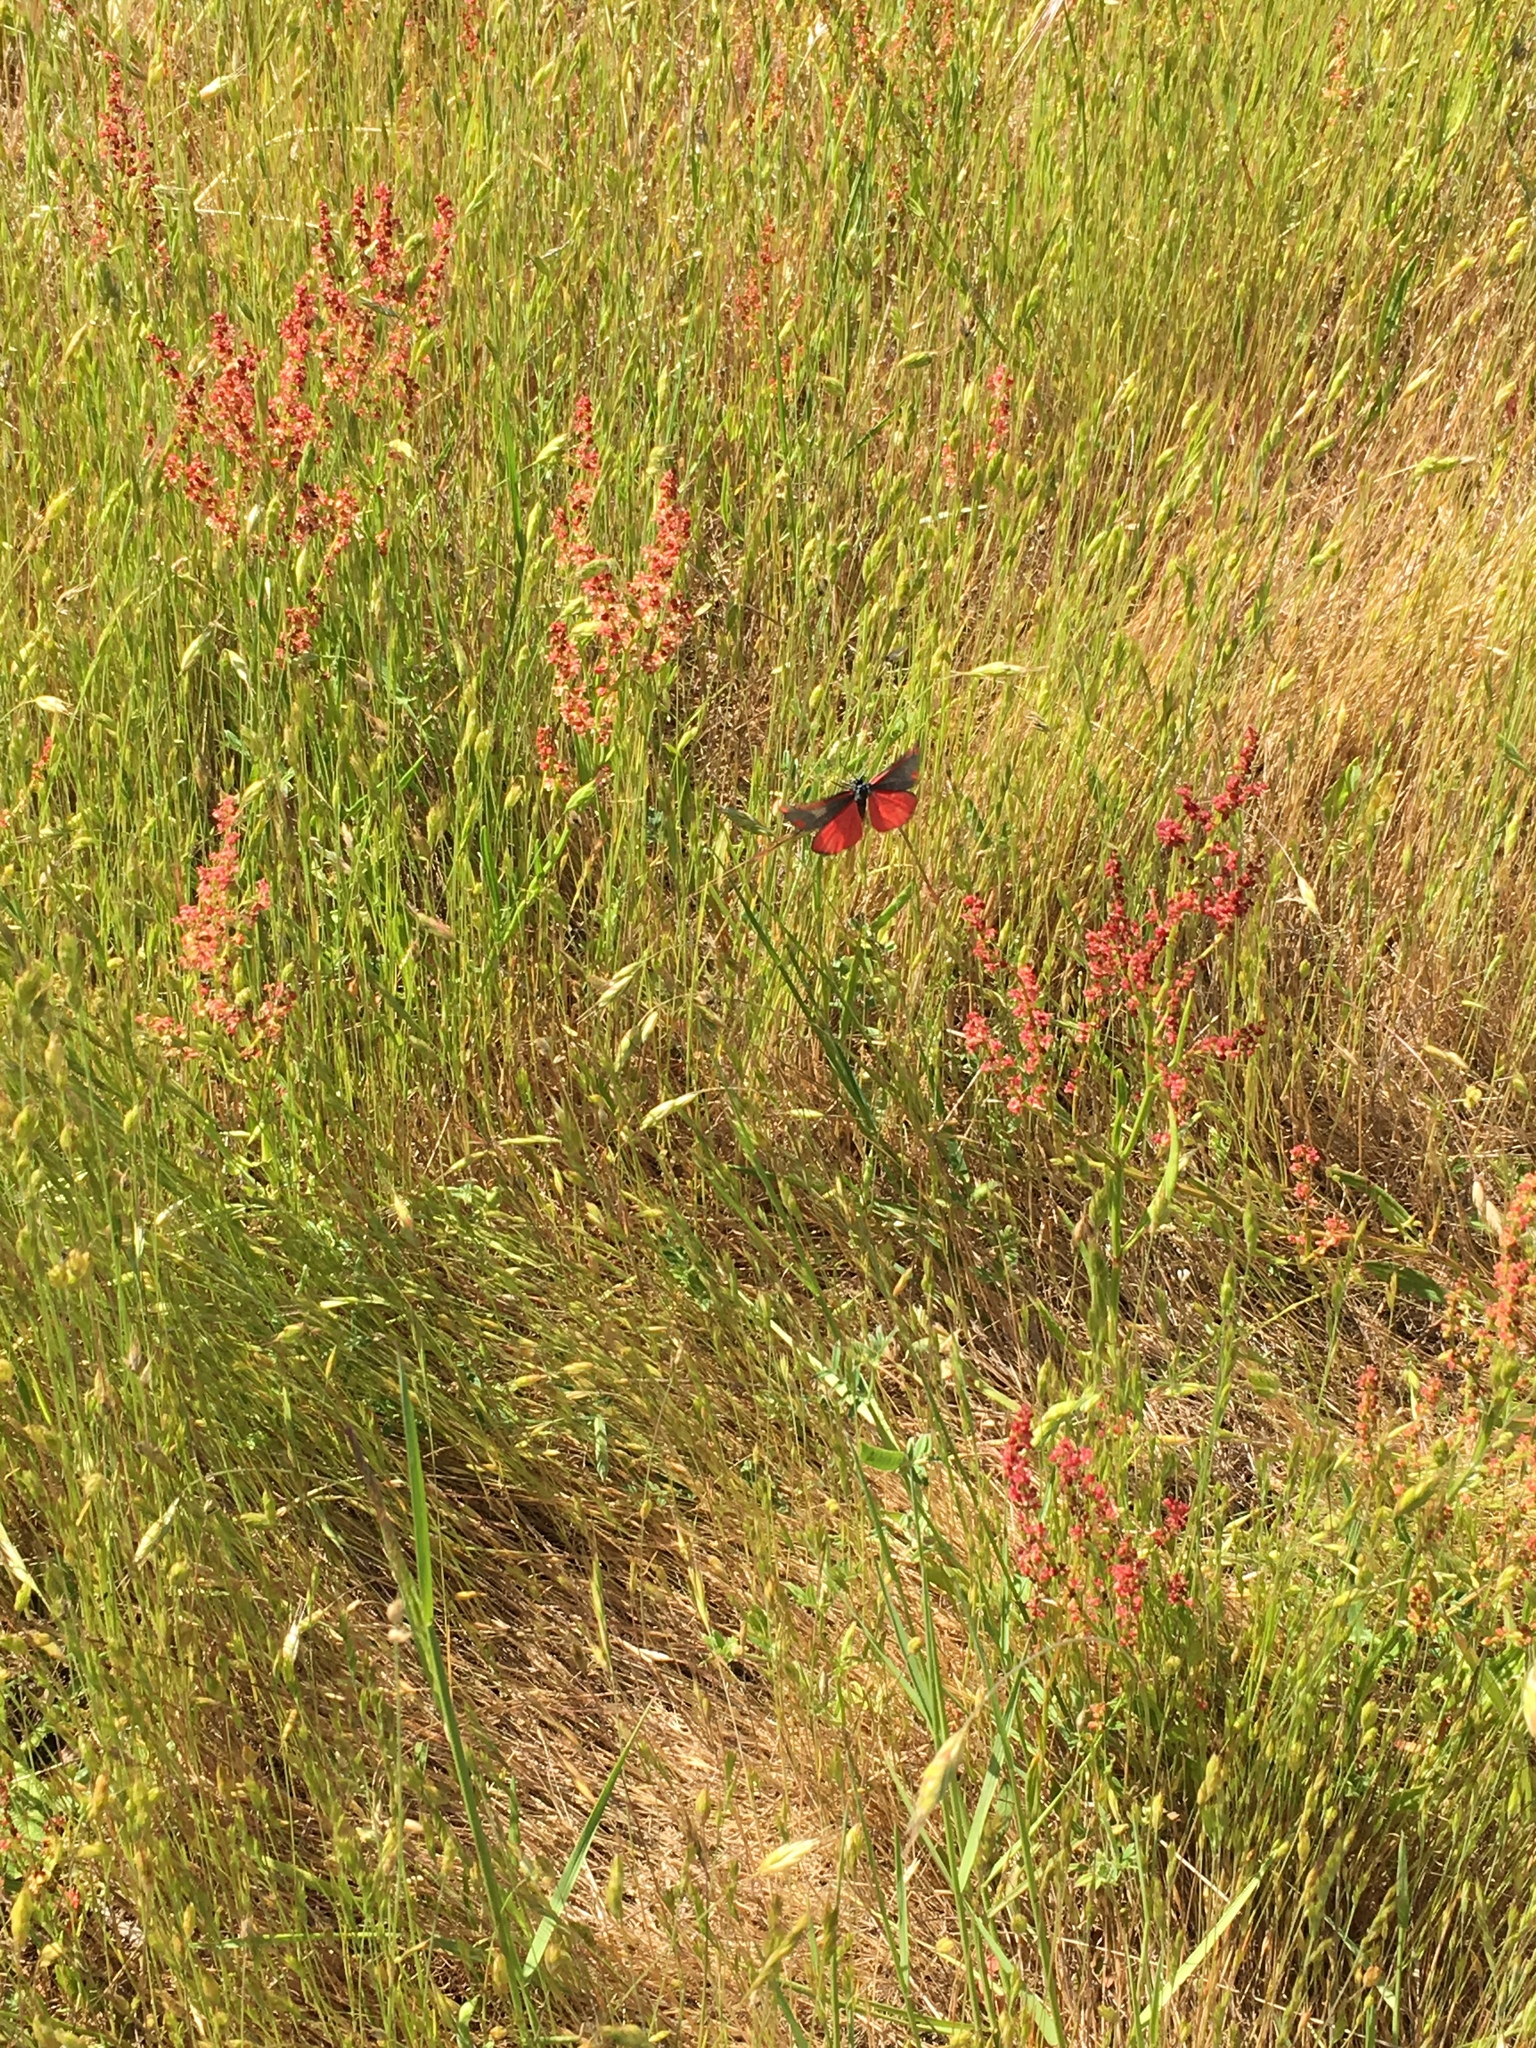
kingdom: Animalia
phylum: Arthropoda
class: Insecta
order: Lepidoptera
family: Erebidae
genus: Tyria
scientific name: Tyria jacobaeae
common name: Cinnabar
